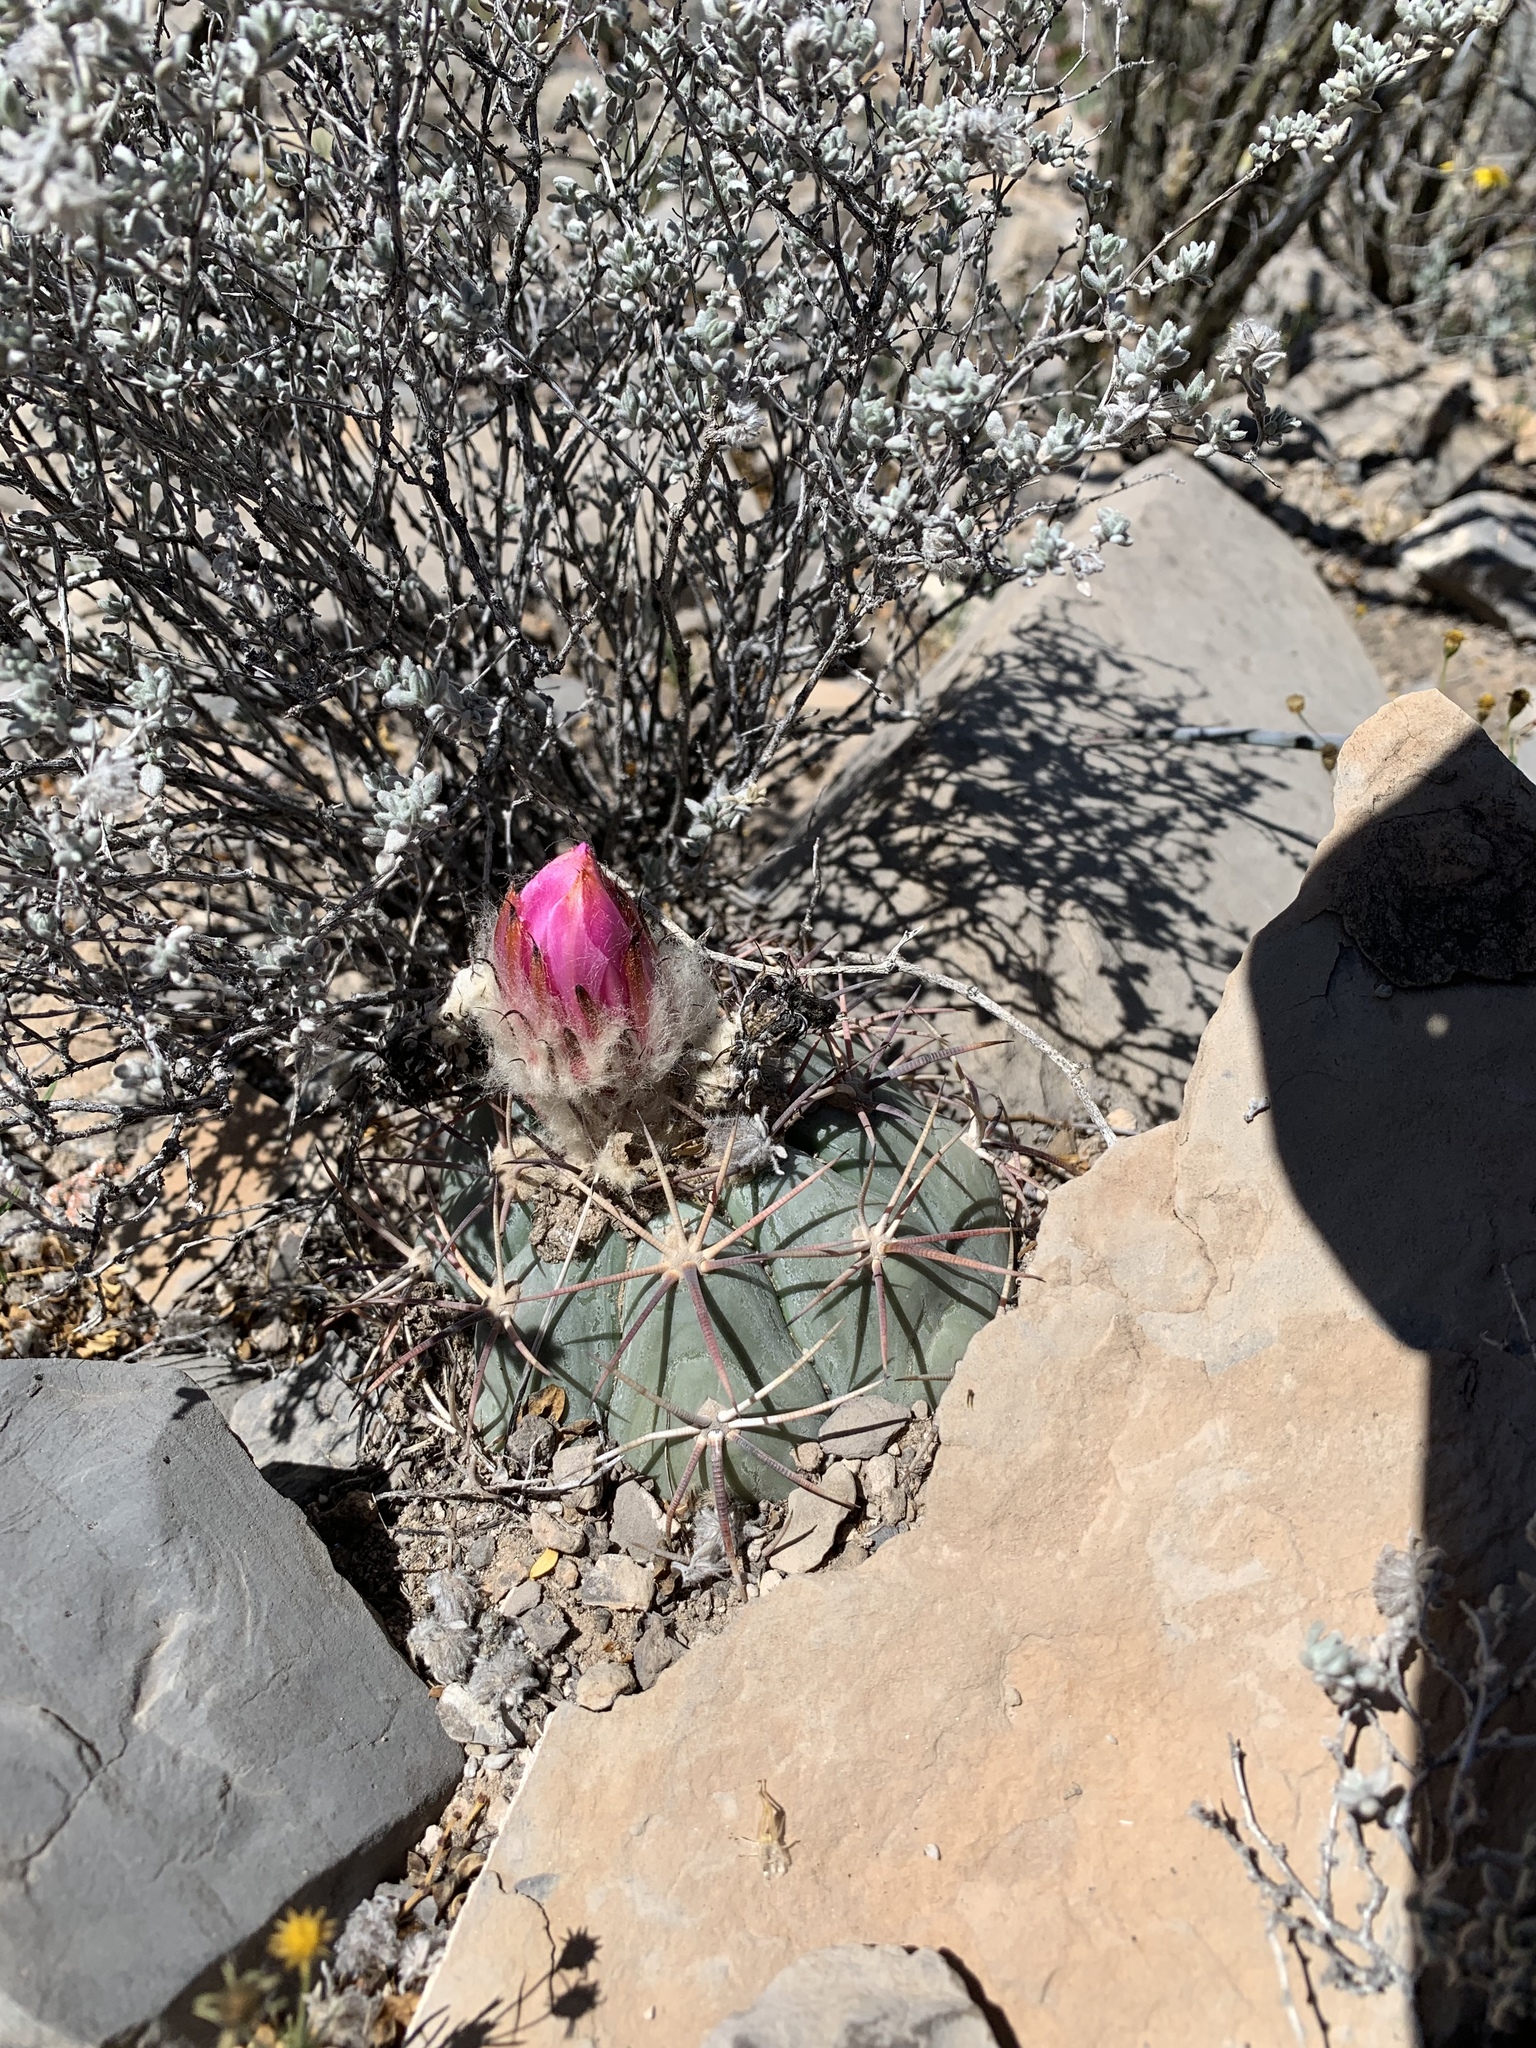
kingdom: Plantae
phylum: Tracheophyta
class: Magnoliopsida
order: Caryophyllales
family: Cactaceae
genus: Echinocactus
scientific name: Echinocactus horizonthalonius
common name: Devilshead
